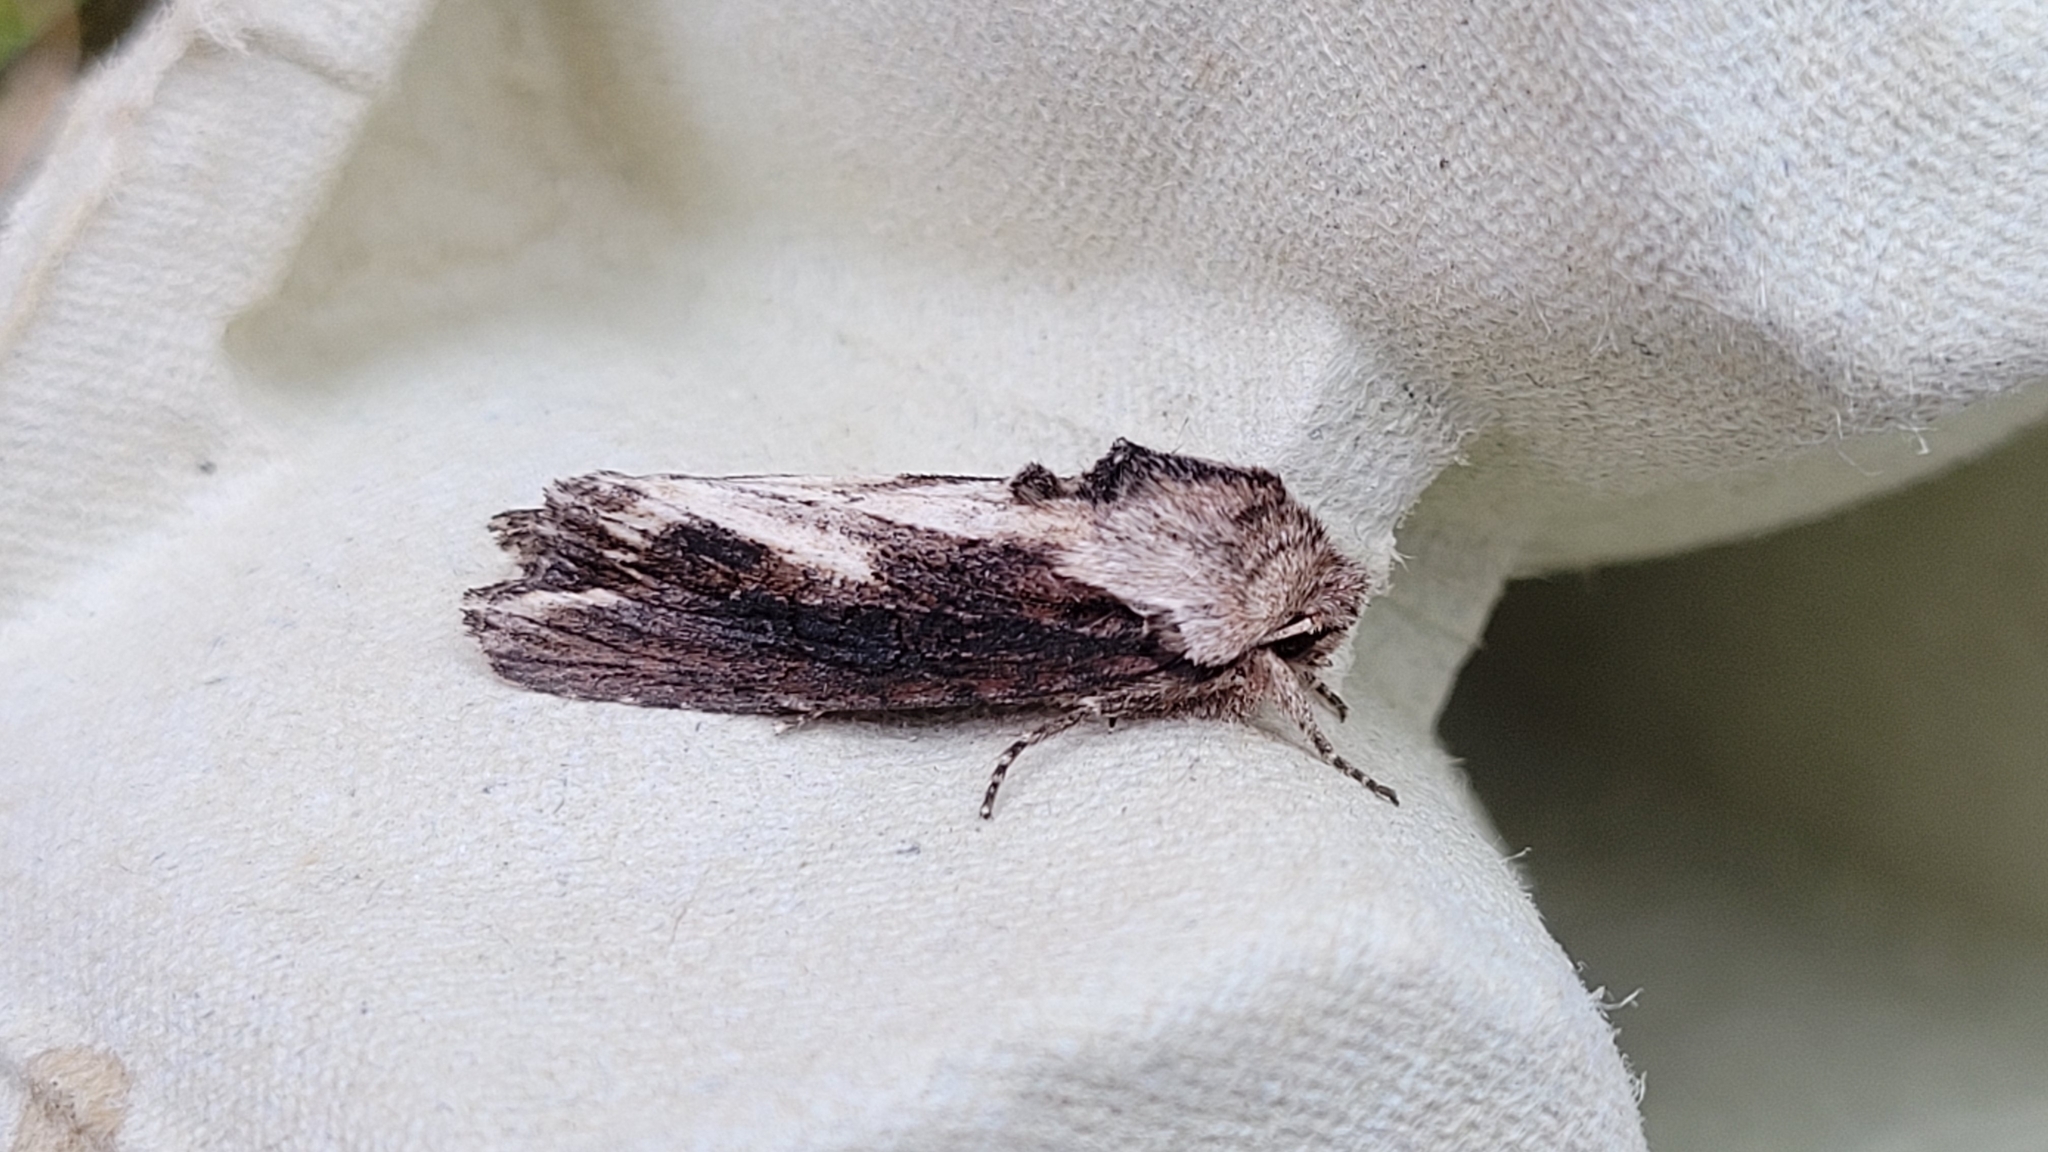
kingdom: Animalia
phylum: Arthropoda
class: Insecta
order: Lepidoptera
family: Noctuidae
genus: Egira
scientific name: Egira conspicillaris
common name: Silver cloud
